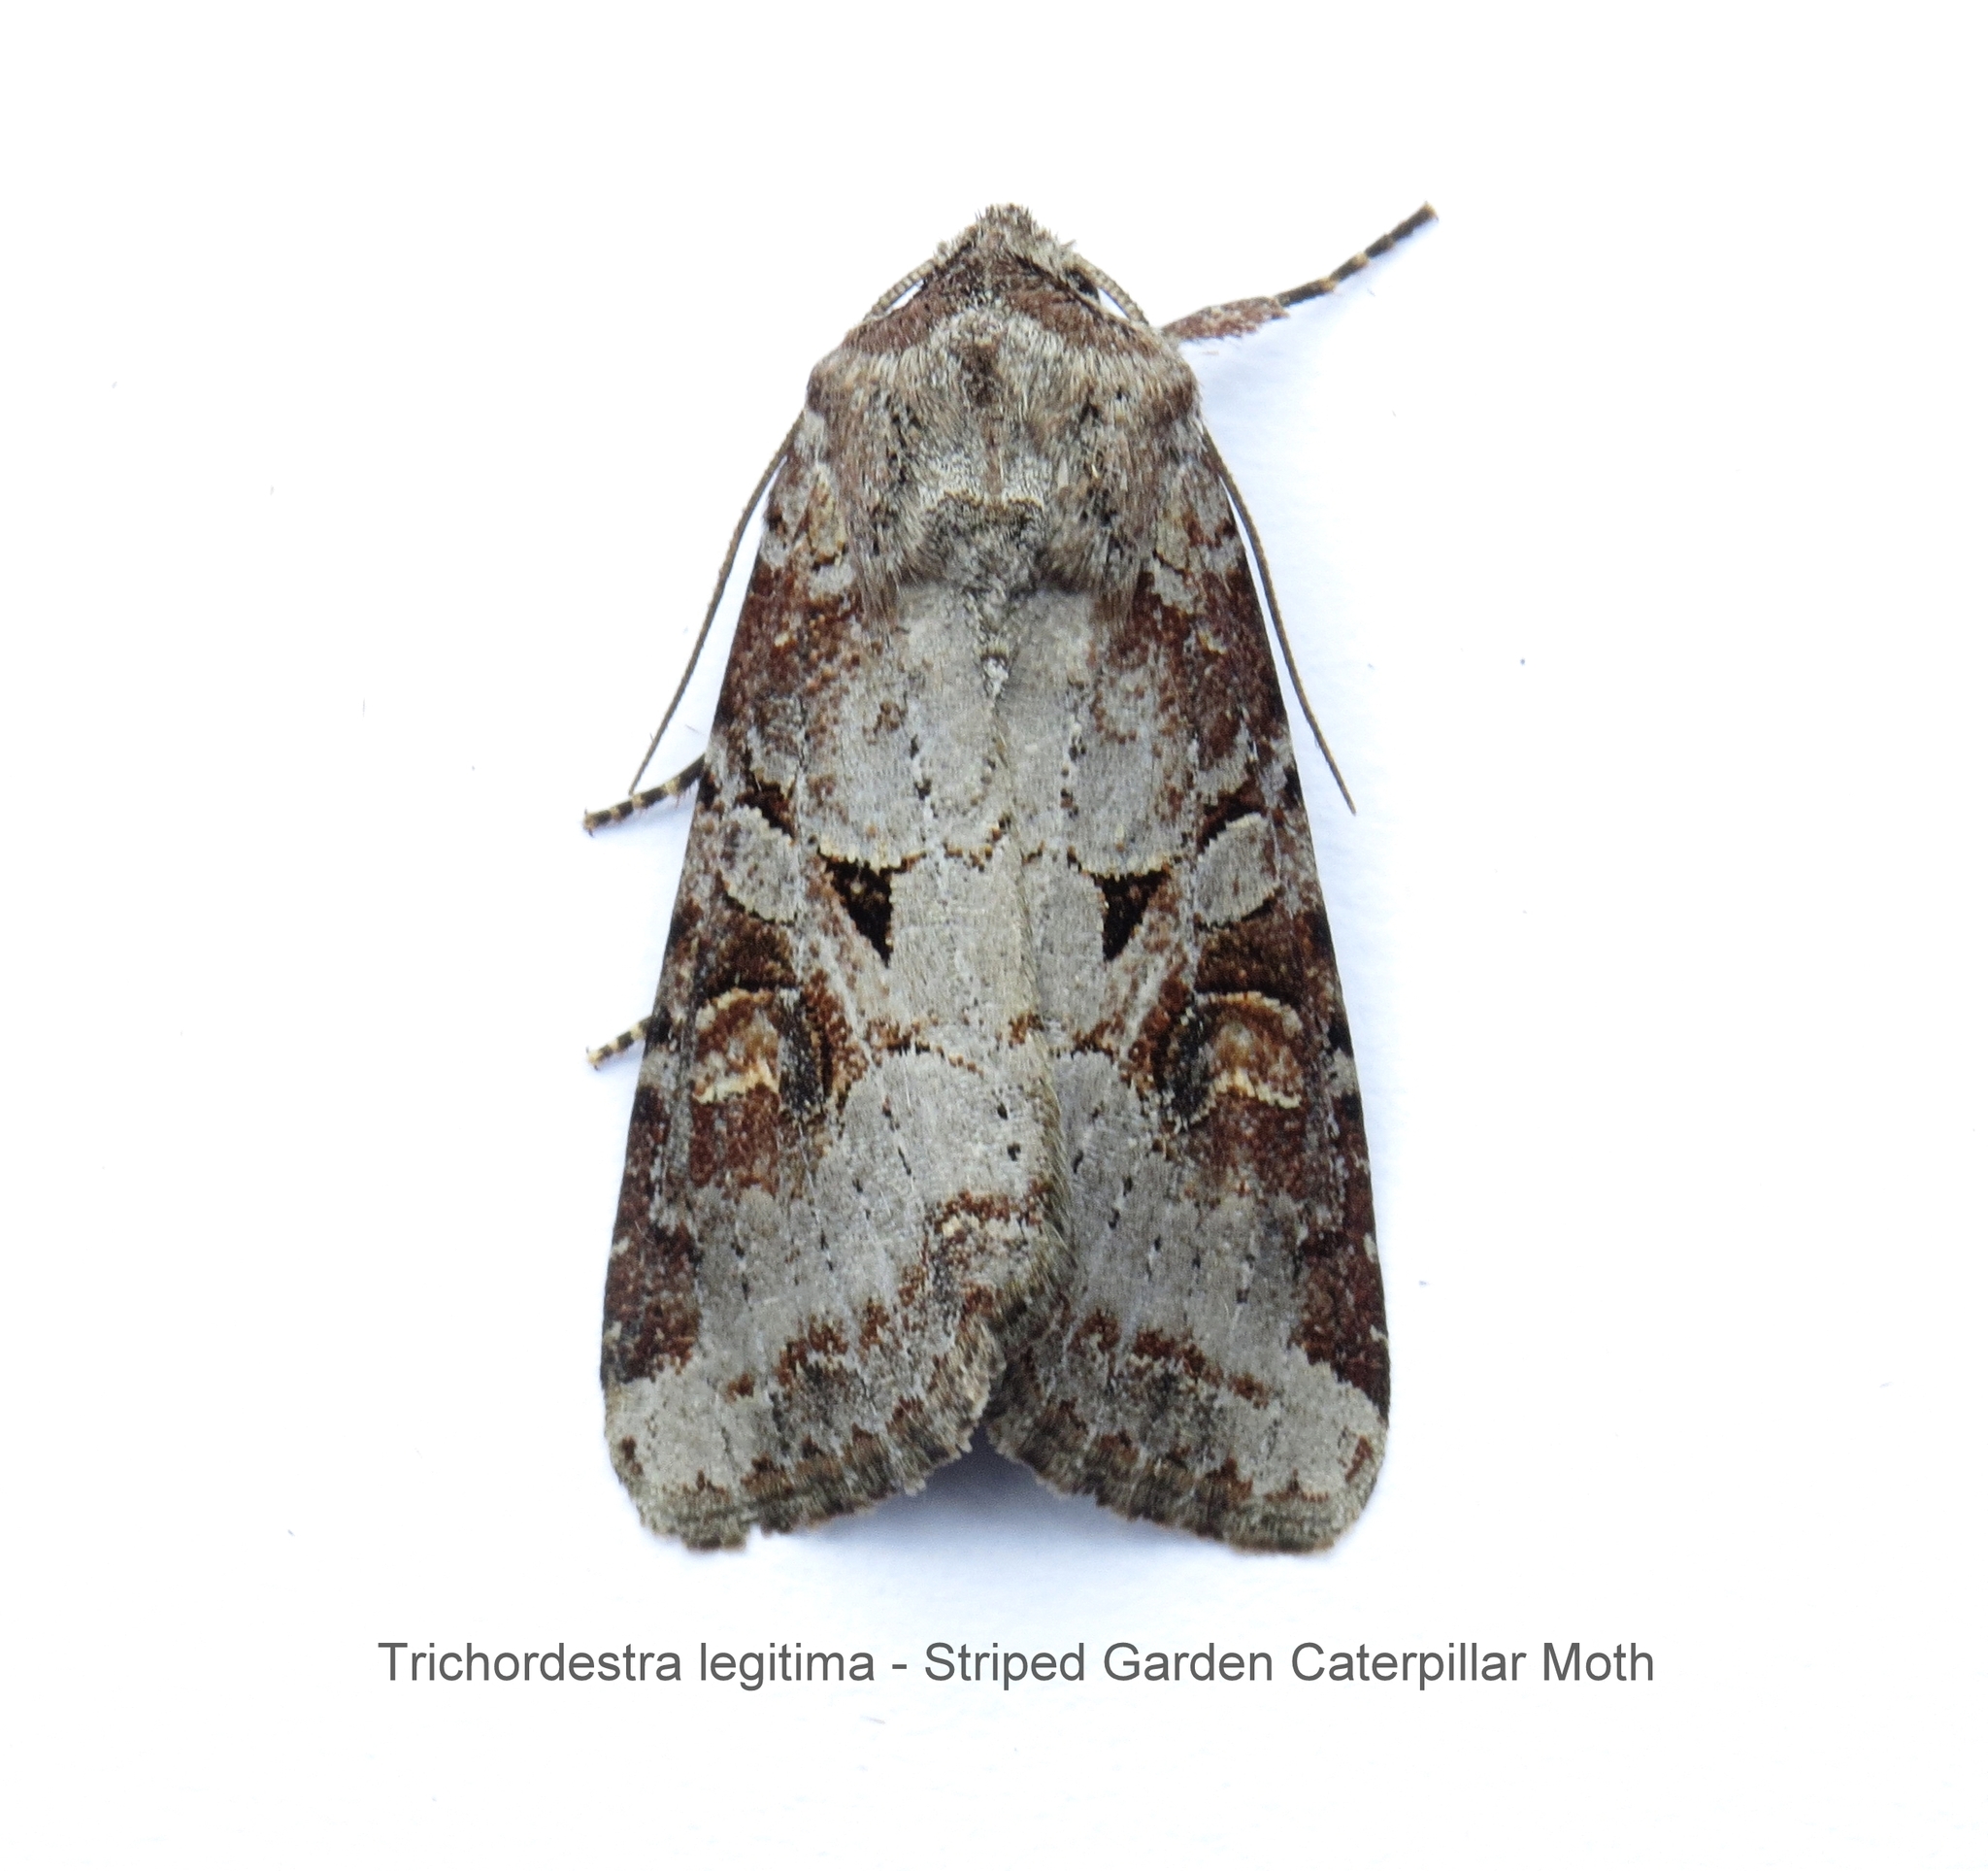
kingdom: Animalia
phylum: Arthropoda
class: Insecta
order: Lepidoptera
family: Noctuidae
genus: Trichordestra
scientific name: Trichordestra legitima
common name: Striped garden caterpillar
